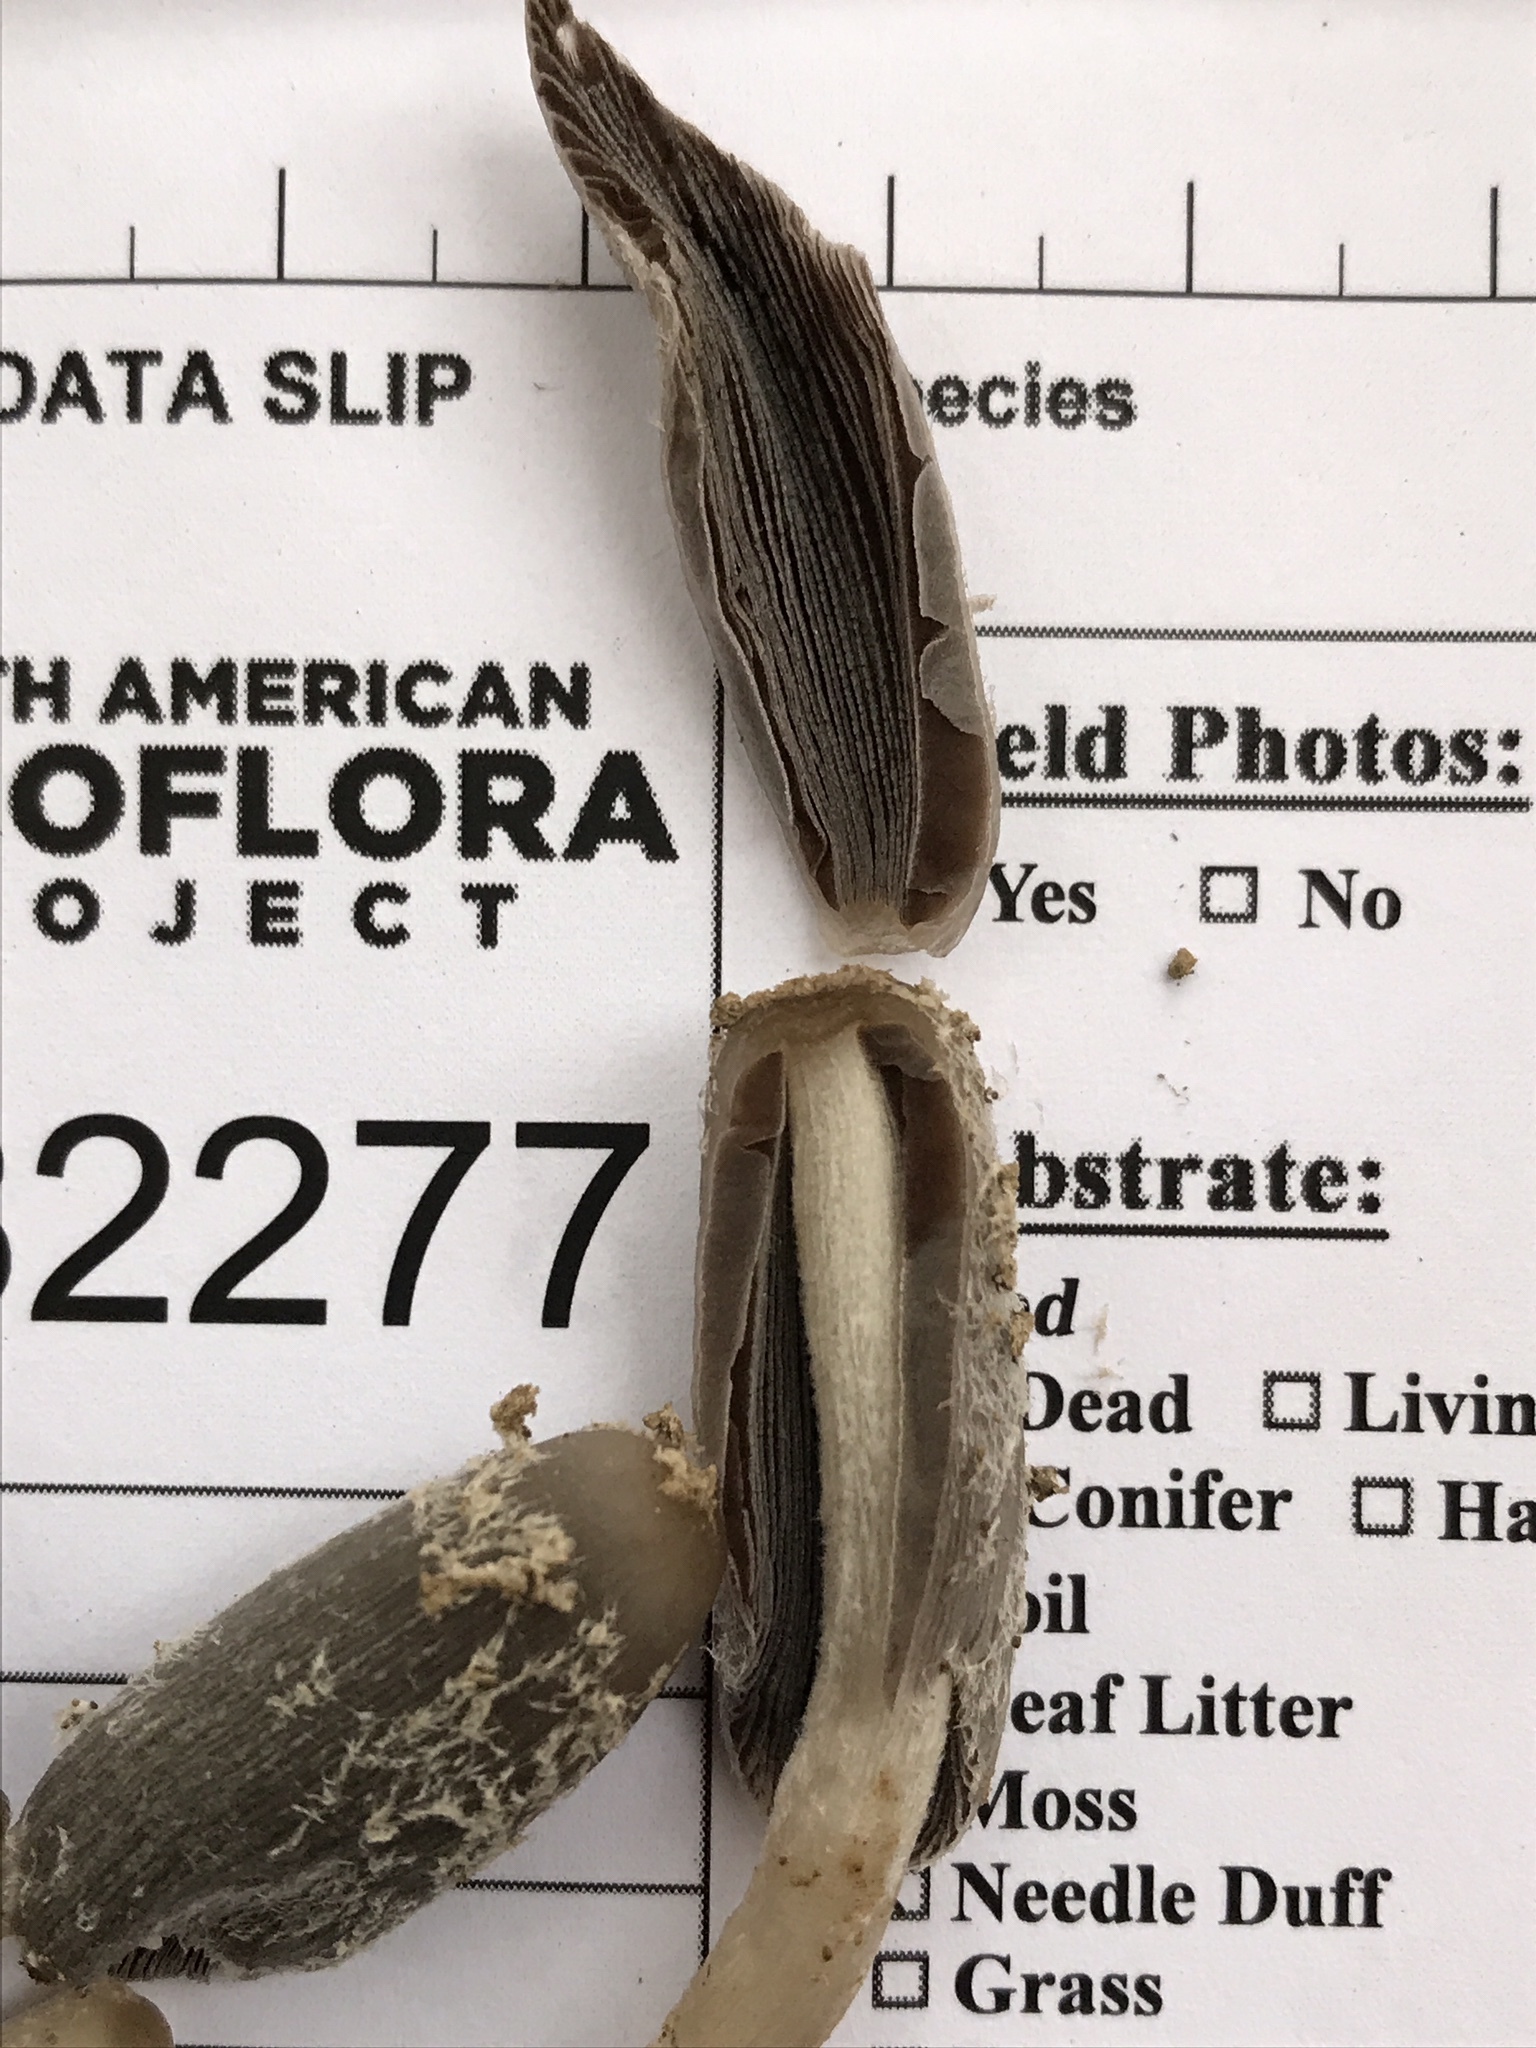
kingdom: Fungi
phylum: Basidiomycota
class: Agaricomycetes
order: Agaricales
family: Psathyrellaceae
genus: Coprinopsis
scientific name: Coprinopsis lagopus
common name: Hare'sfoot inkcap
